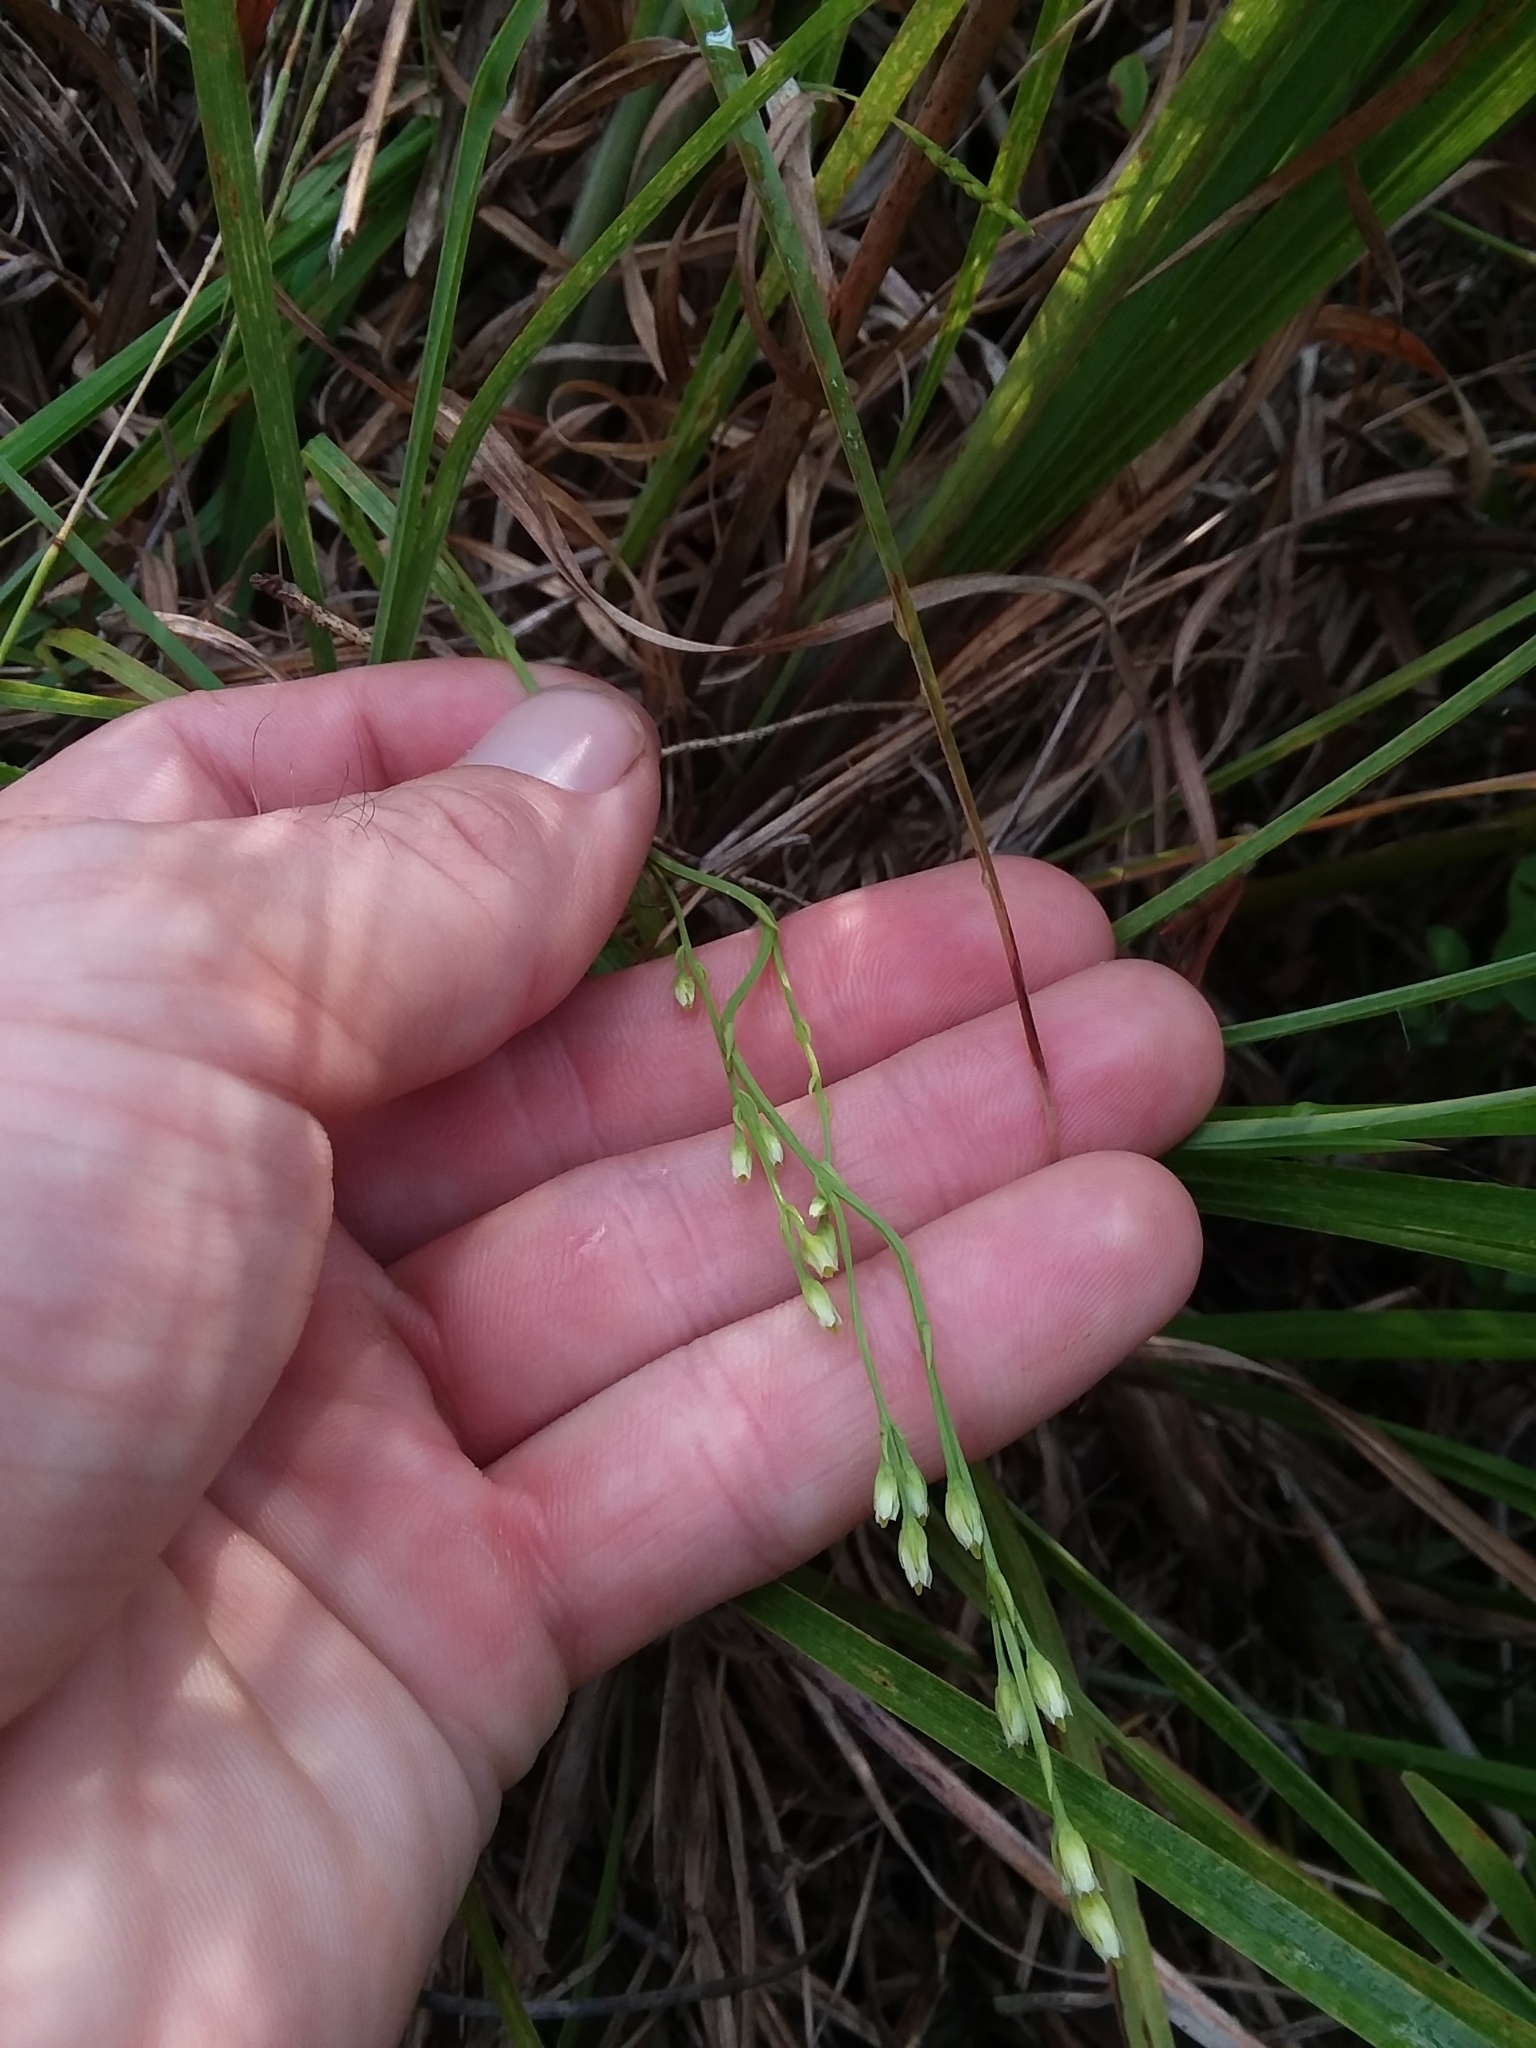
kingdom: Plantae
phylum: Tracheophyta
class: Magnoliopsida
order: Gentianales
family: Gentianaceae
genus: Bartonia
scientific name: Bartonia virginica
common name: Yellow bartonia
